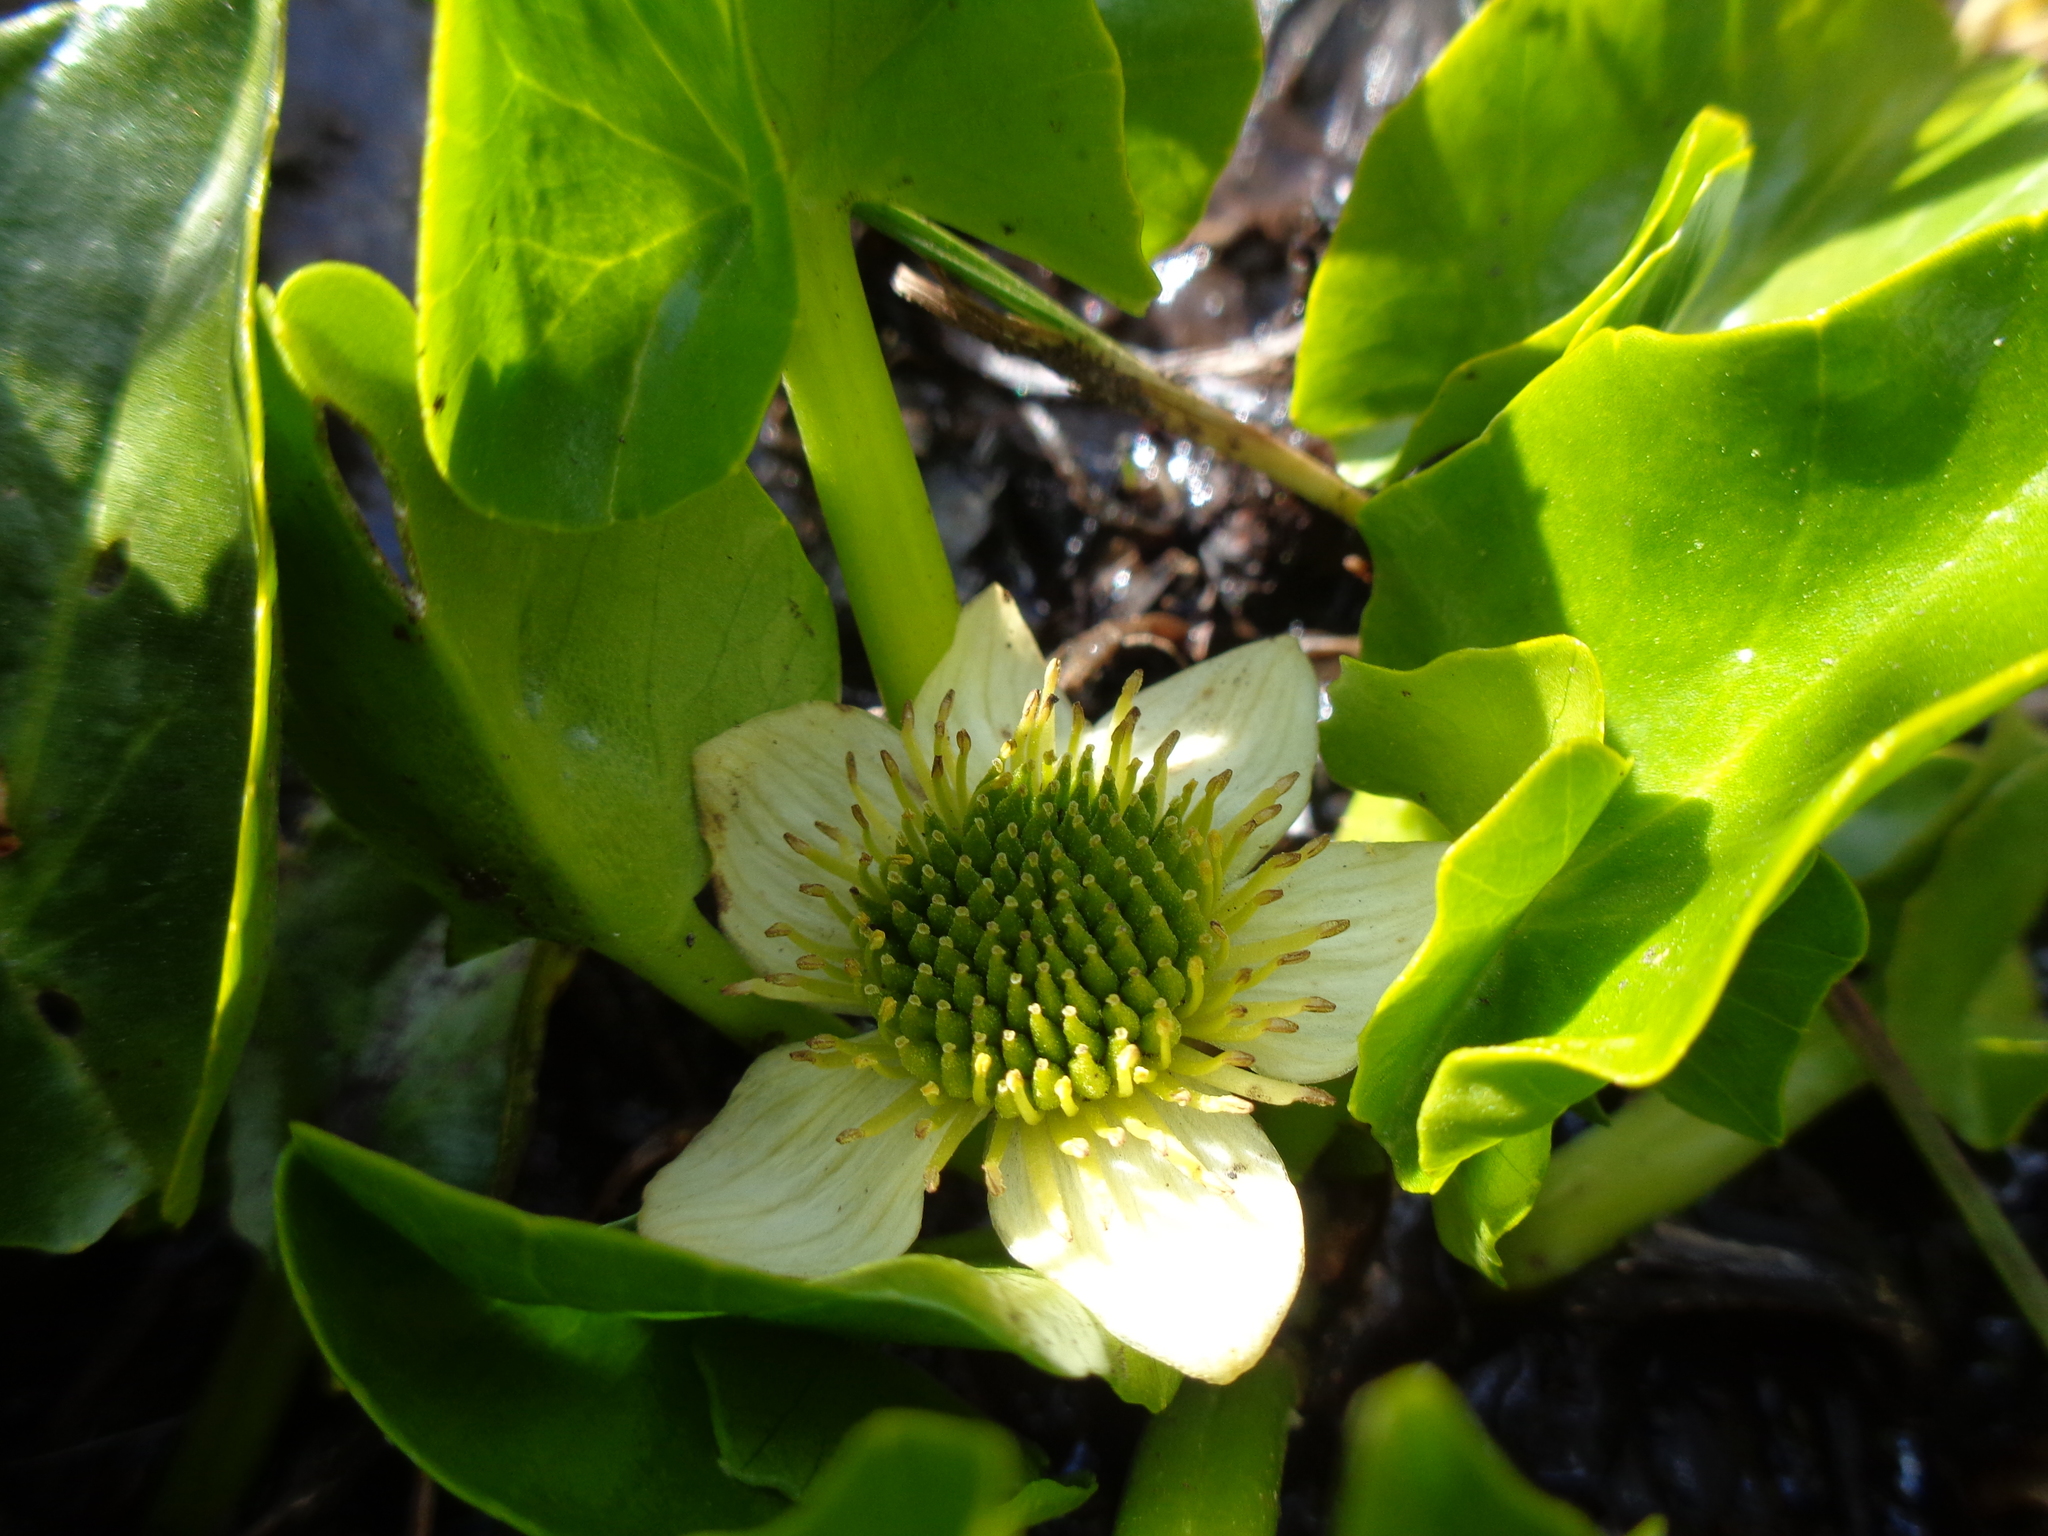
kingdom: Plantae
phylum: Tracheophyta
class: Magnoliopsida
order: Ranunculales
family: Ranunculaceae
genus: Caltha
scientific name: Caltha sagittata
